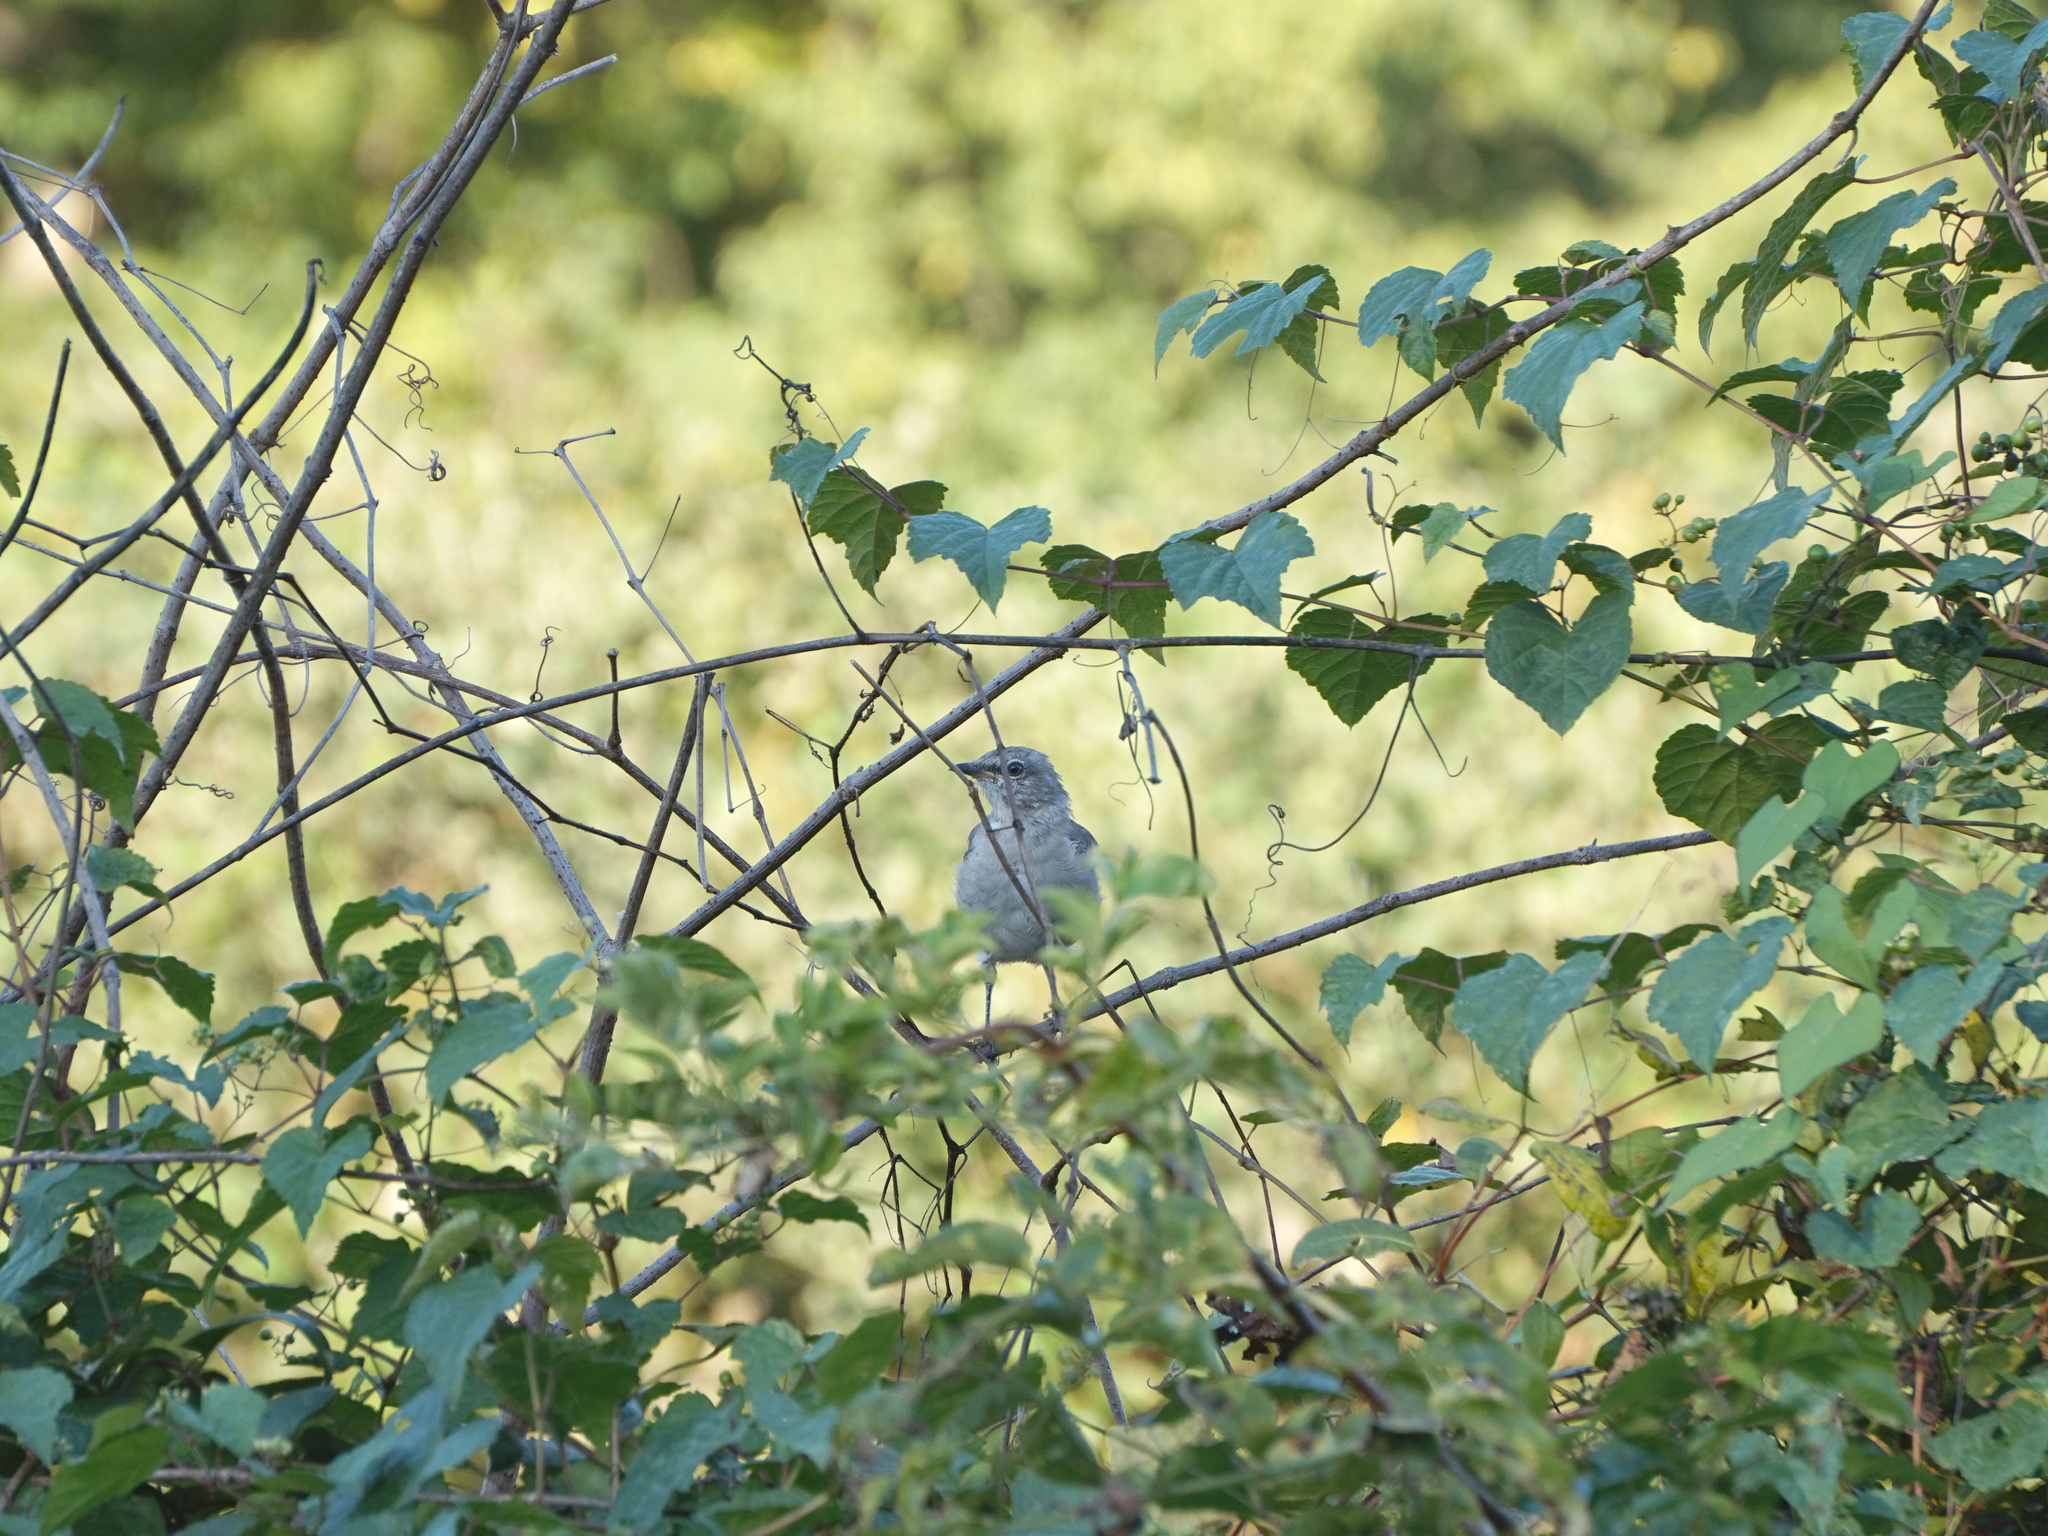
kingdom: Animalia
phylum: Chordata
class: Aves
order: Passeriformes
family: Mimidae
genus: Mimus
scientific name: Mimus polyglottos
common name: Northern mockingbird
